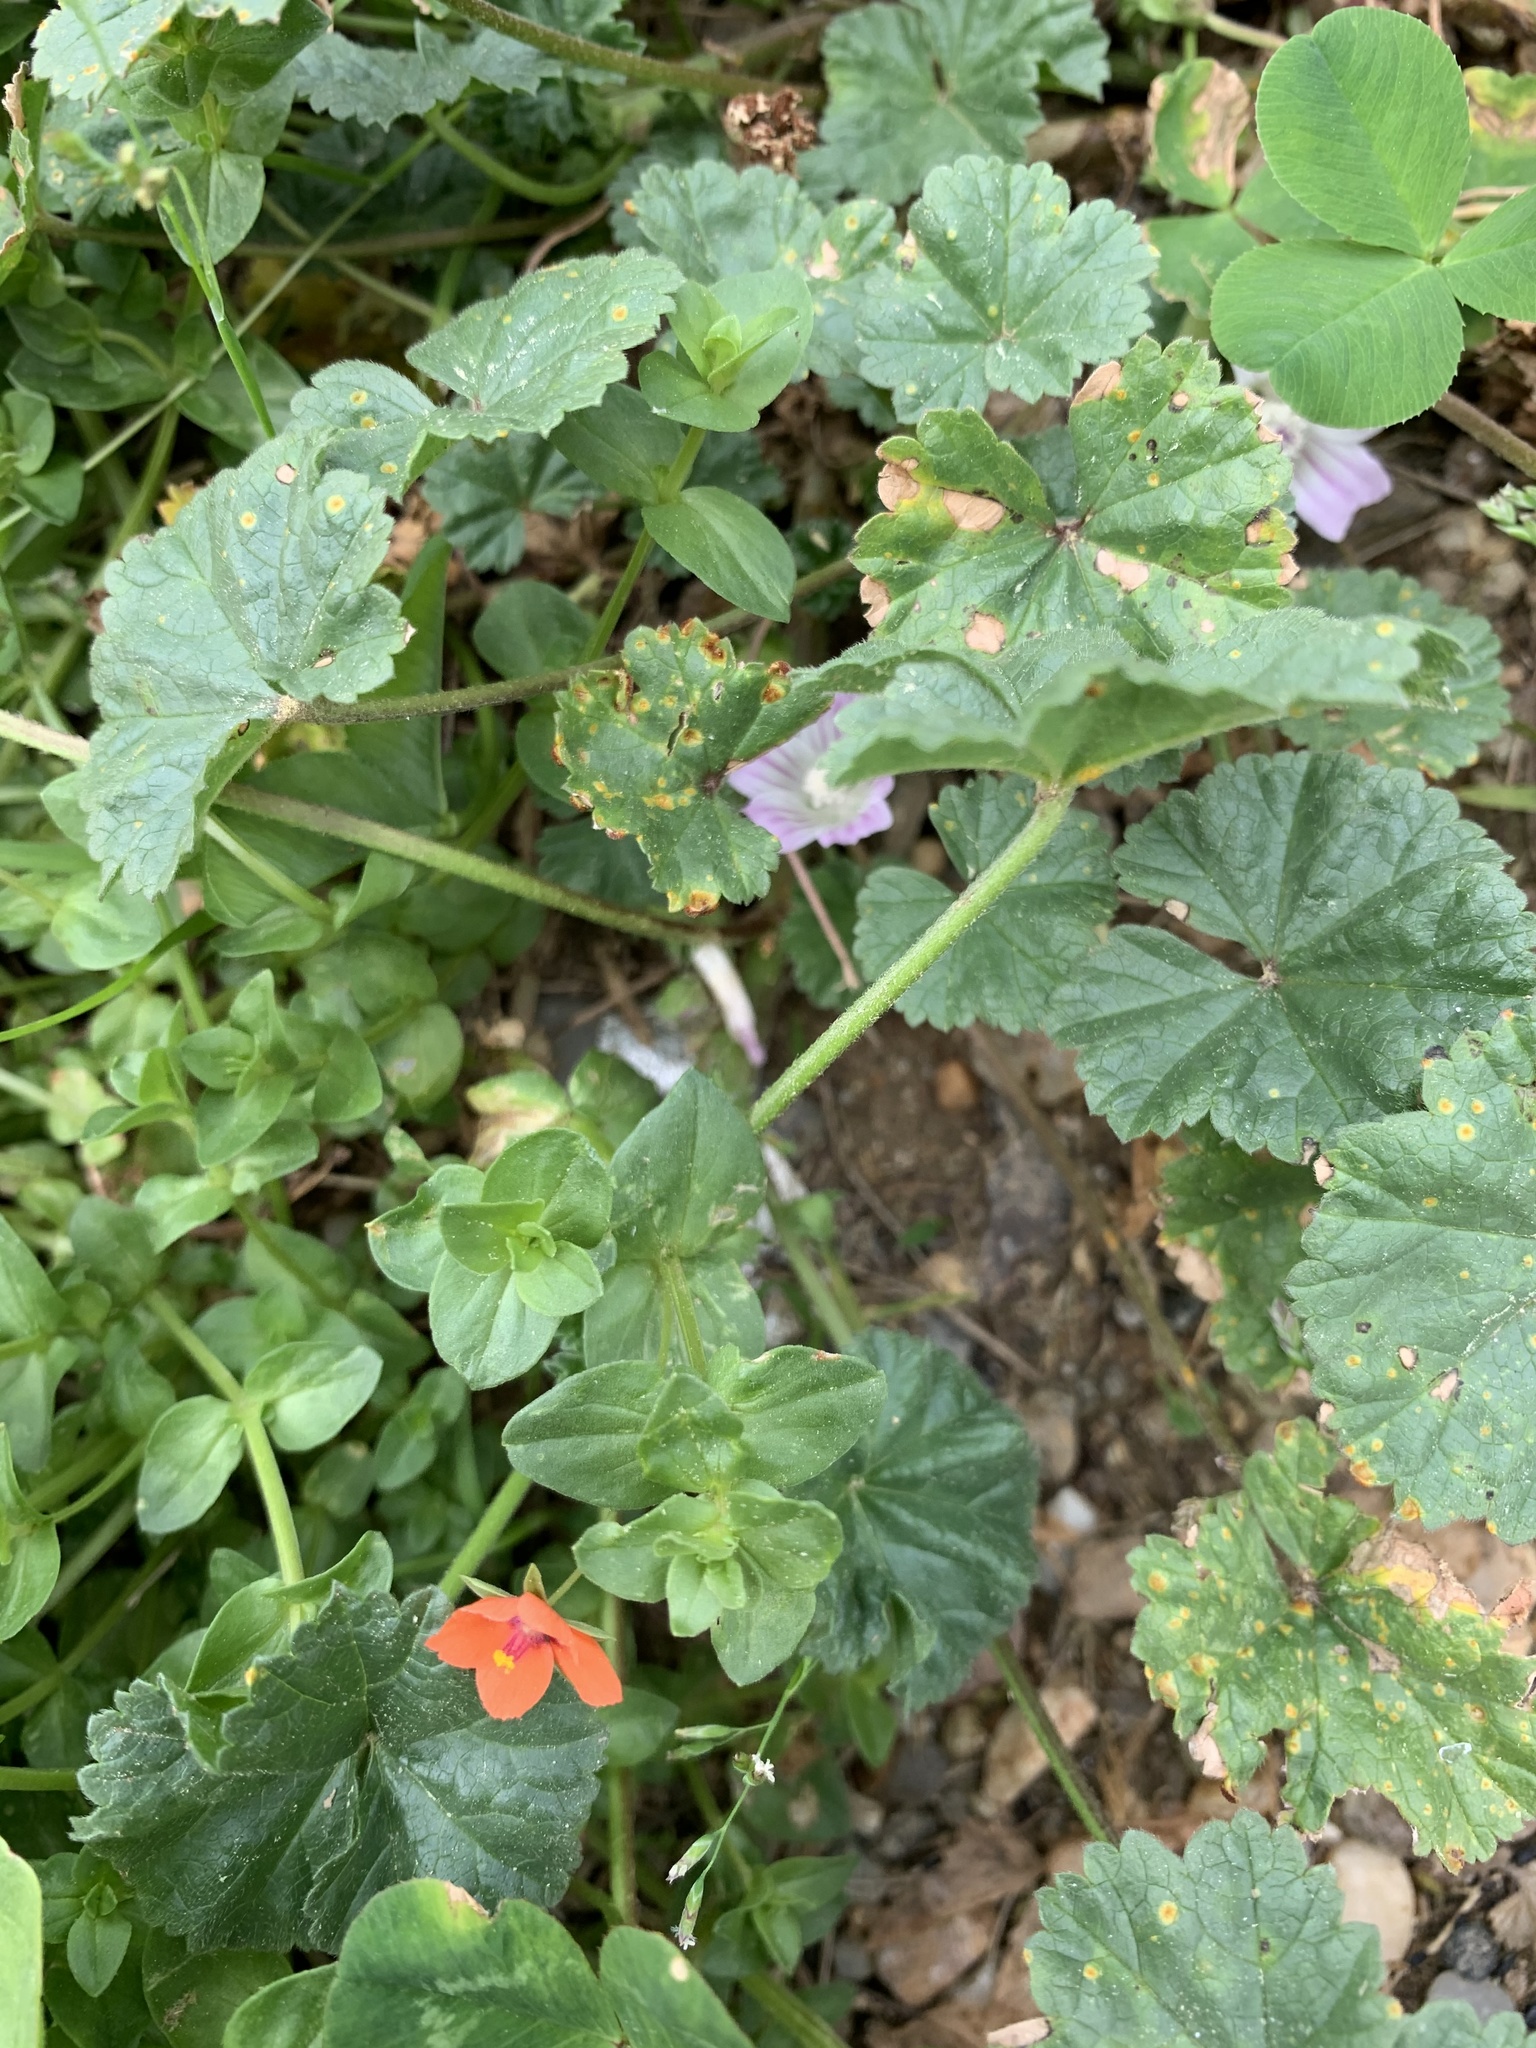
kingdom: Plantae
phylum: Tracheophyta
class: Magnoliopsida
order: Ericales
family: Primulaceae
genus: Lysimachia
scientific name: Lysimachia arvensis
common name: Scarlet pimpernel
